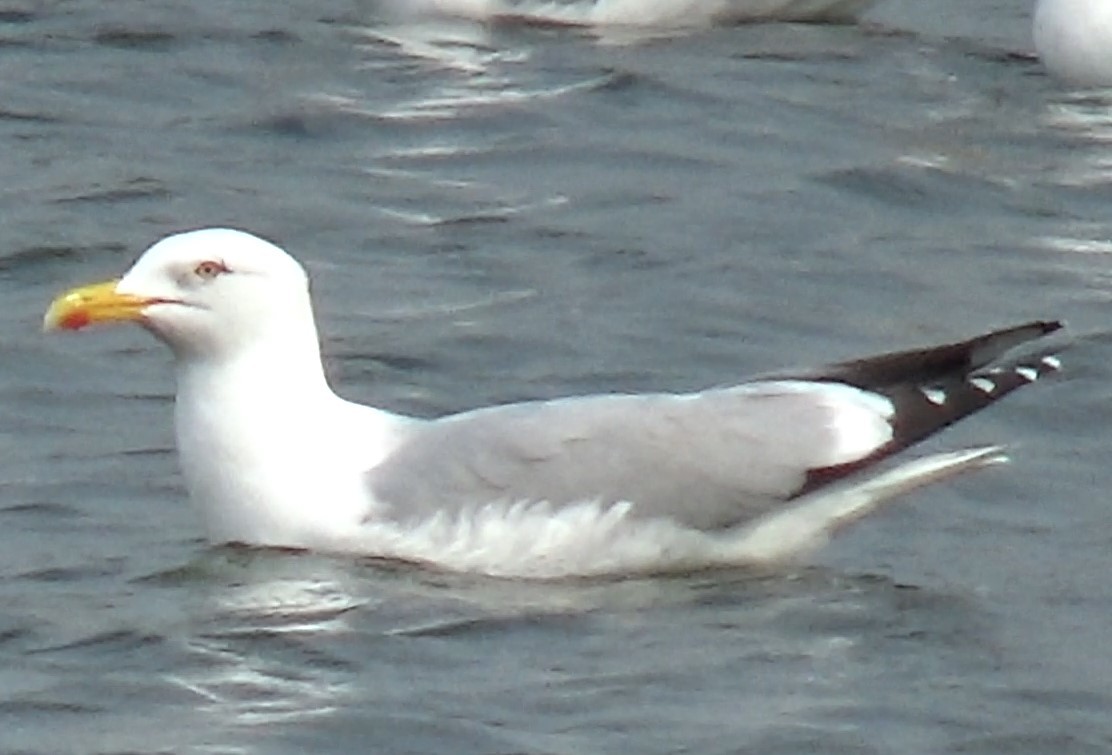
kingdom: Animalia
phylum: Chordata
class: Aves
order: Charadriiformes
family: Laridae
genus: Larus
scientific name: Larus argentatus
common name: Herring gull
